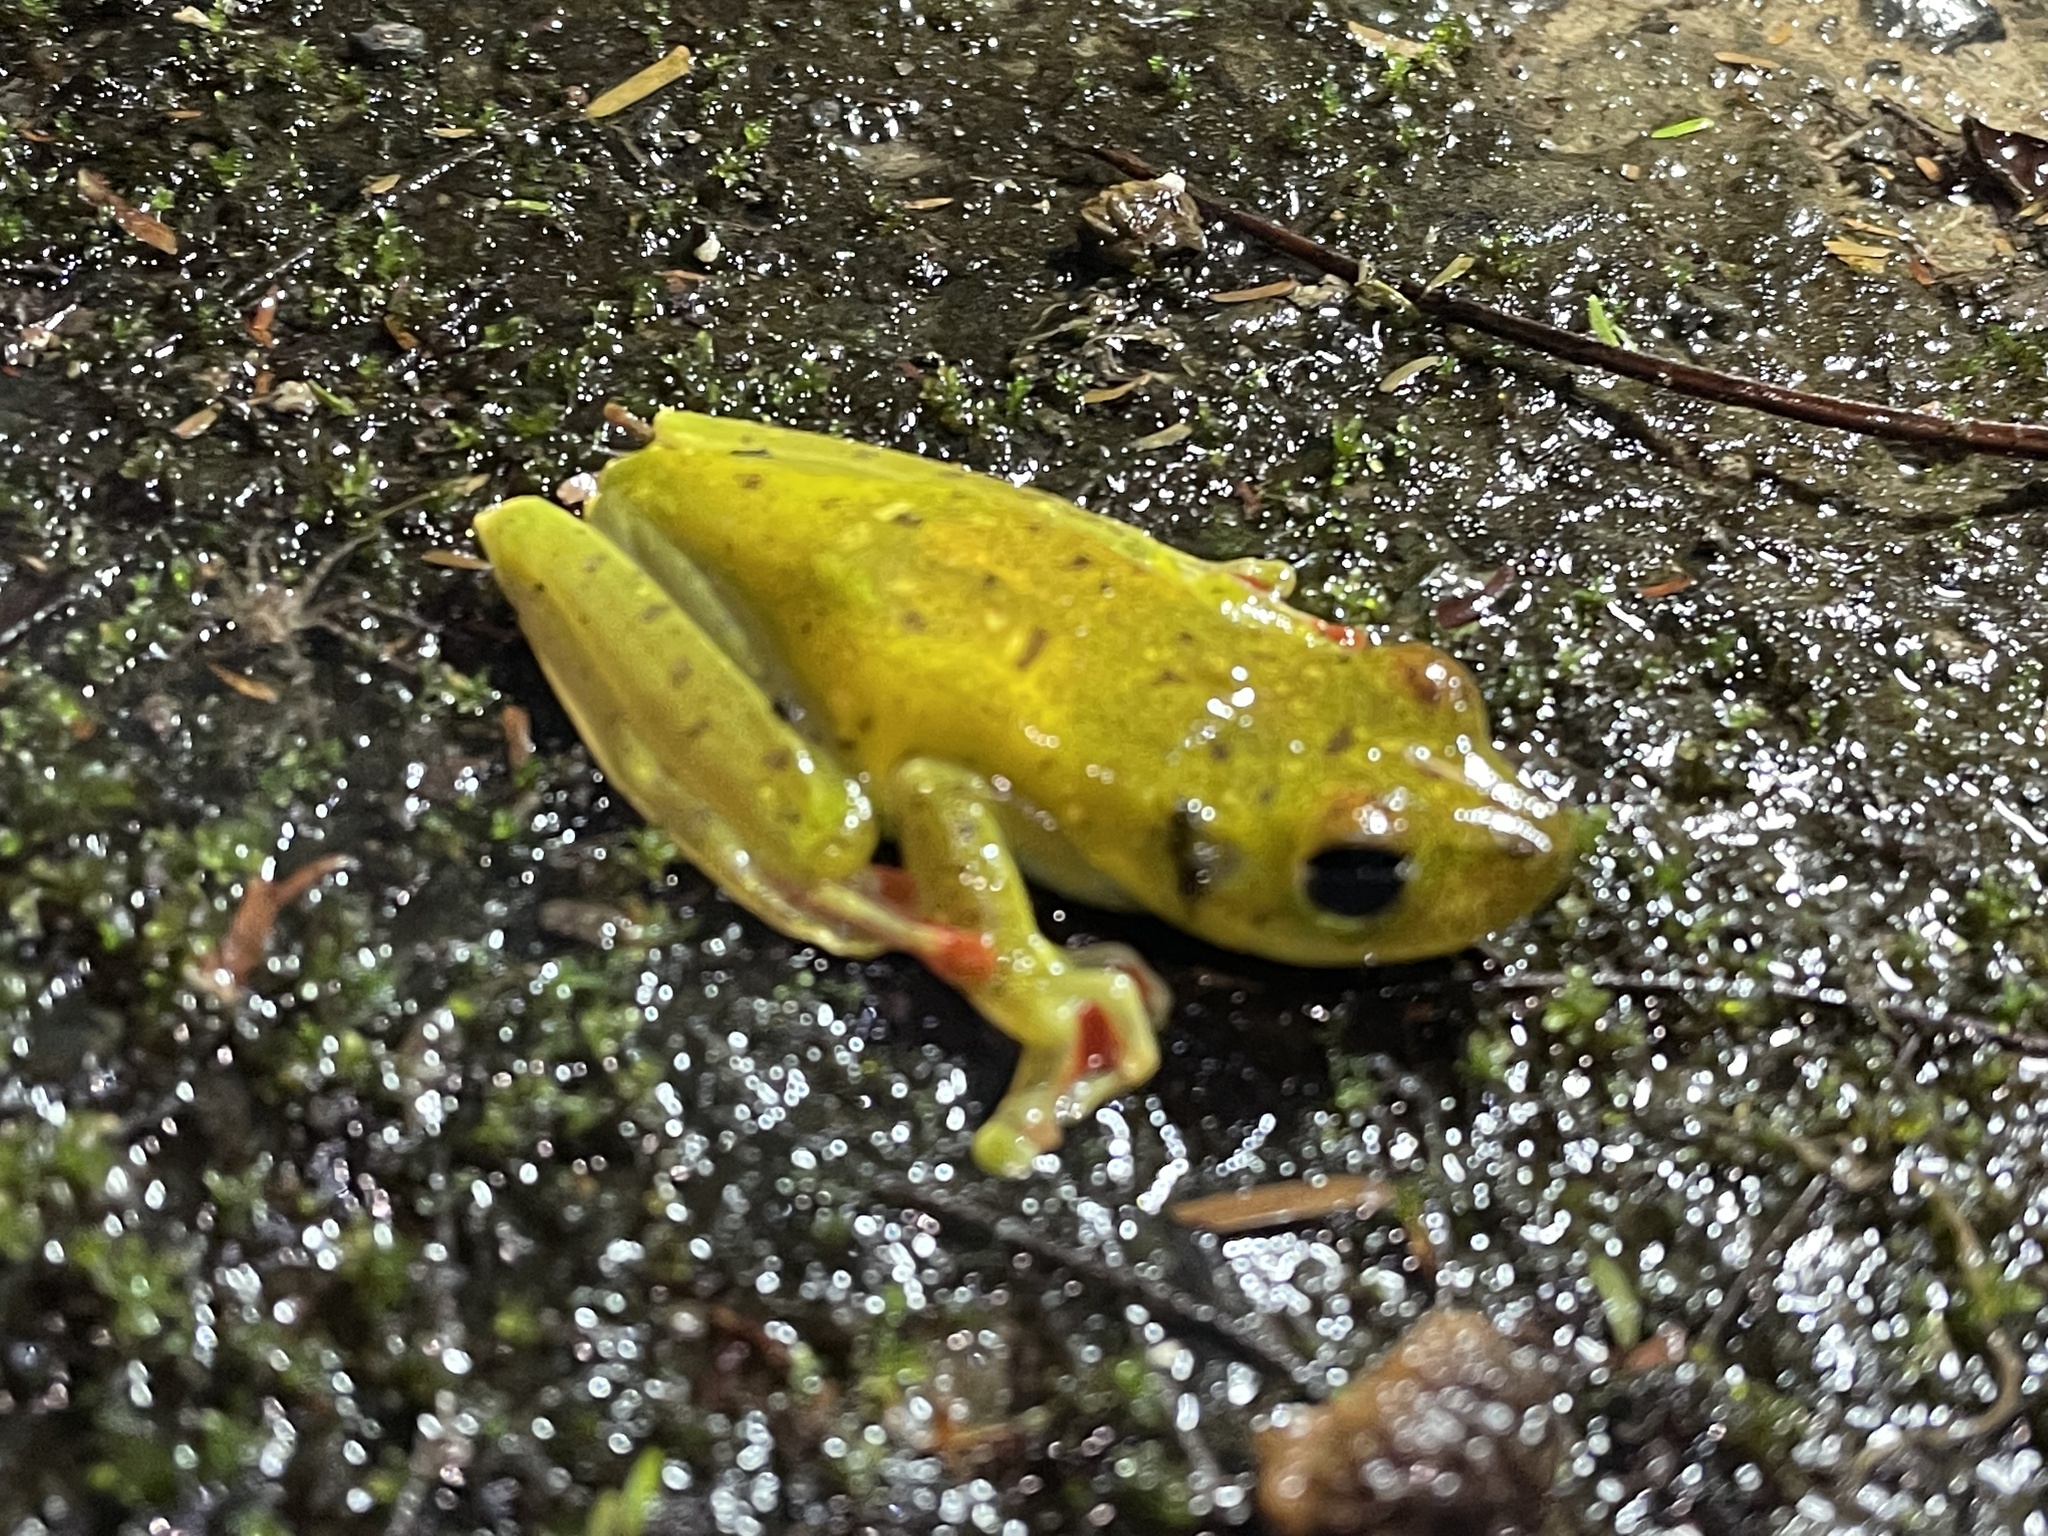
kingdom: Animalia
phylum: Chordata
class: Amphibia
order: Anura
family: Hylidae
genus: Boana
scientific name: Boana rufitela
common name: Canal zone treefrog
